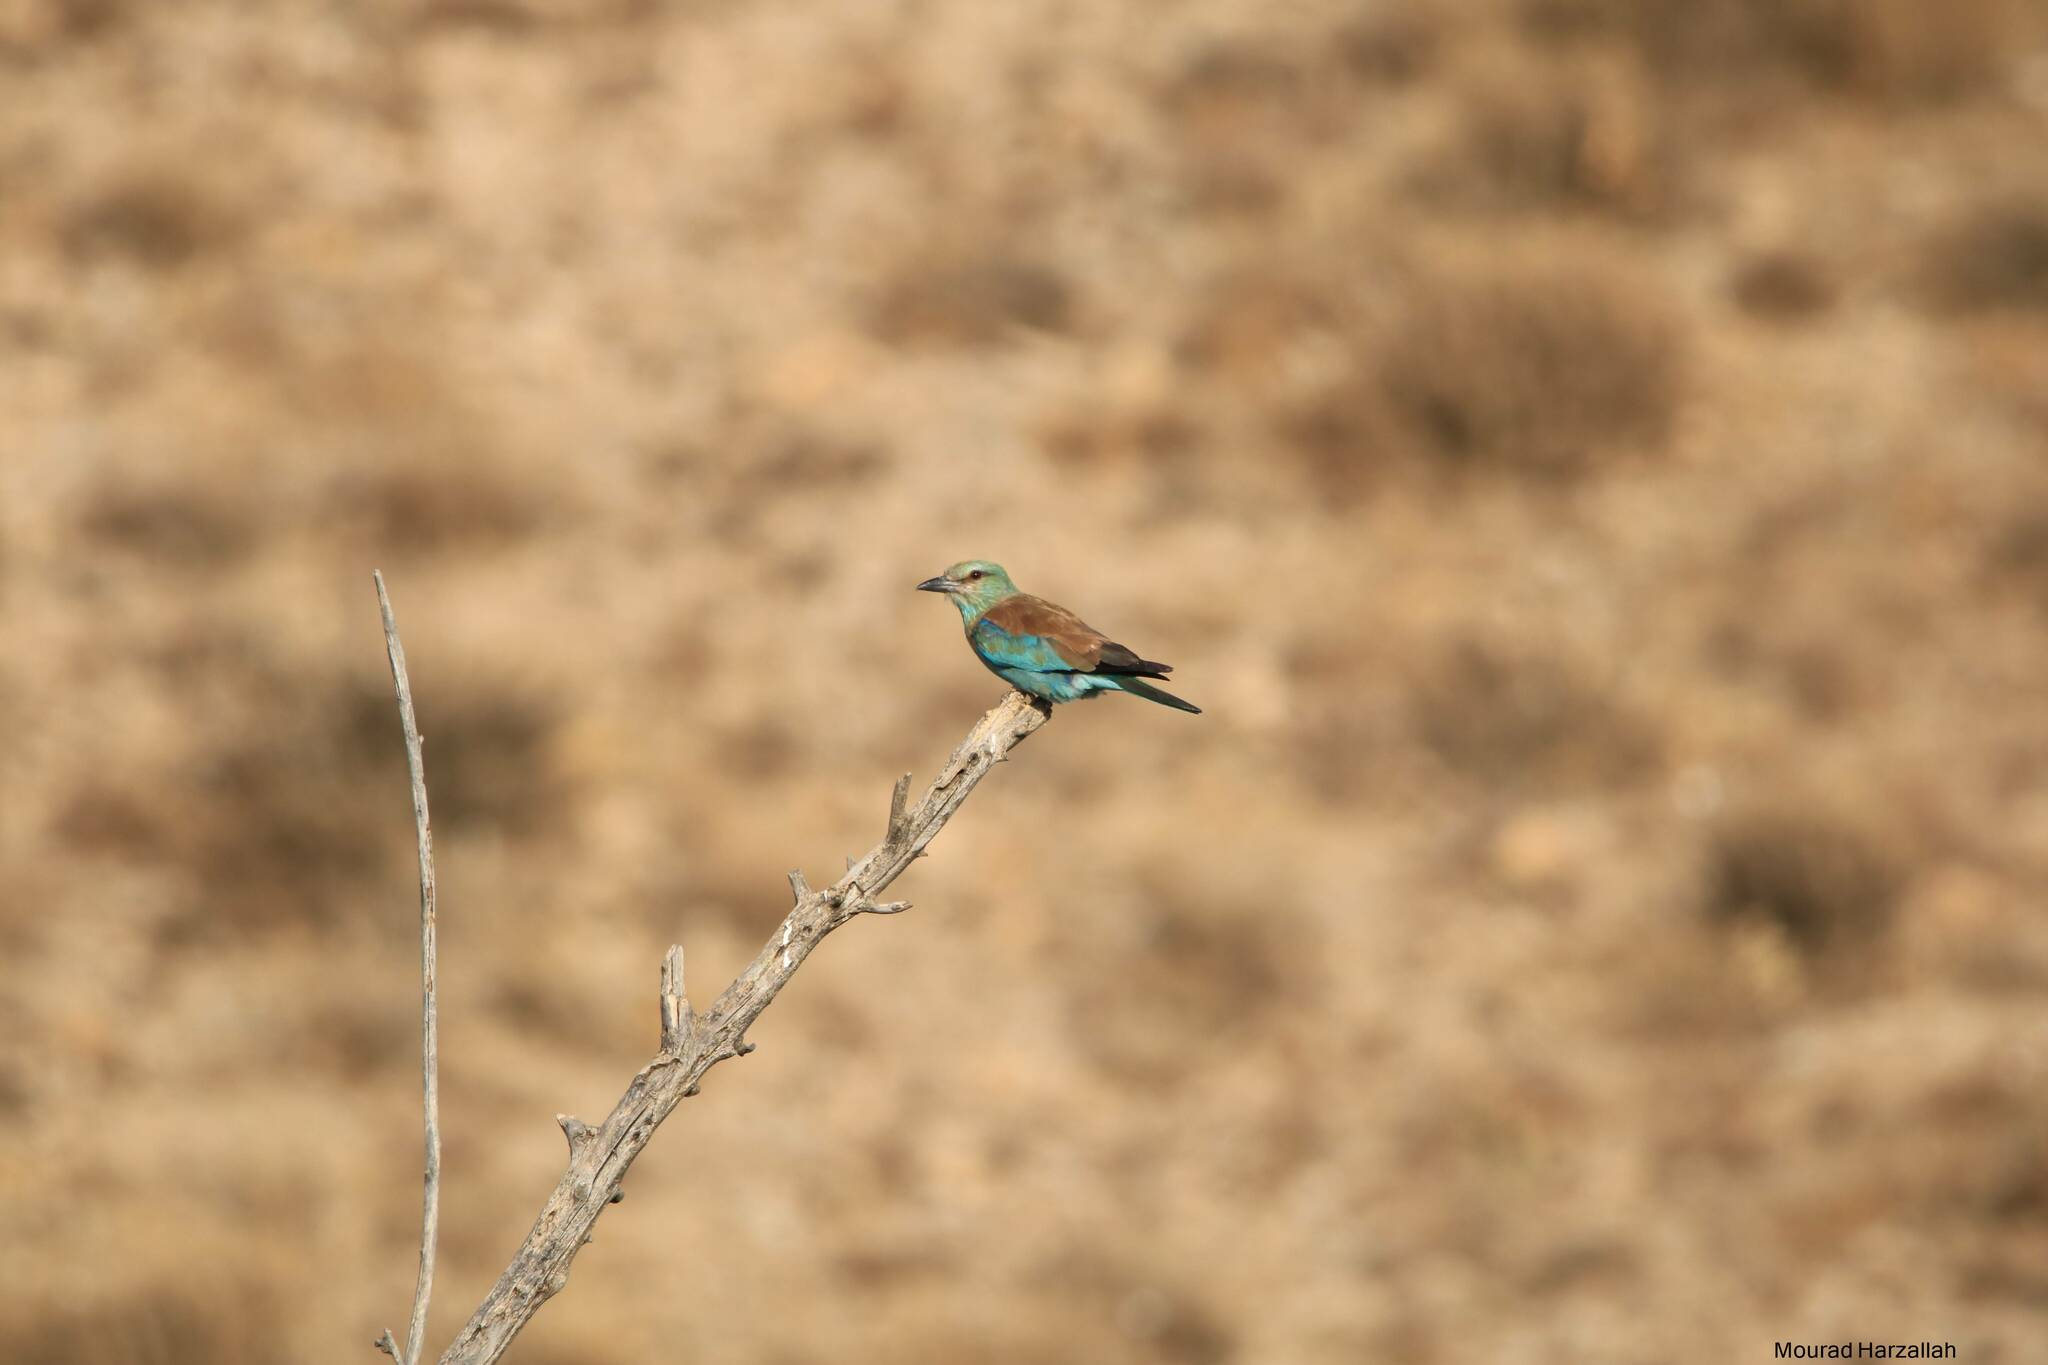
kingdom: Animalia
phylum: Chordata
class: Aves
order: Coraciiformes
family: Coraciidae
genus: Coracias
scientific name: Coracias garrulus
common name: European roller
